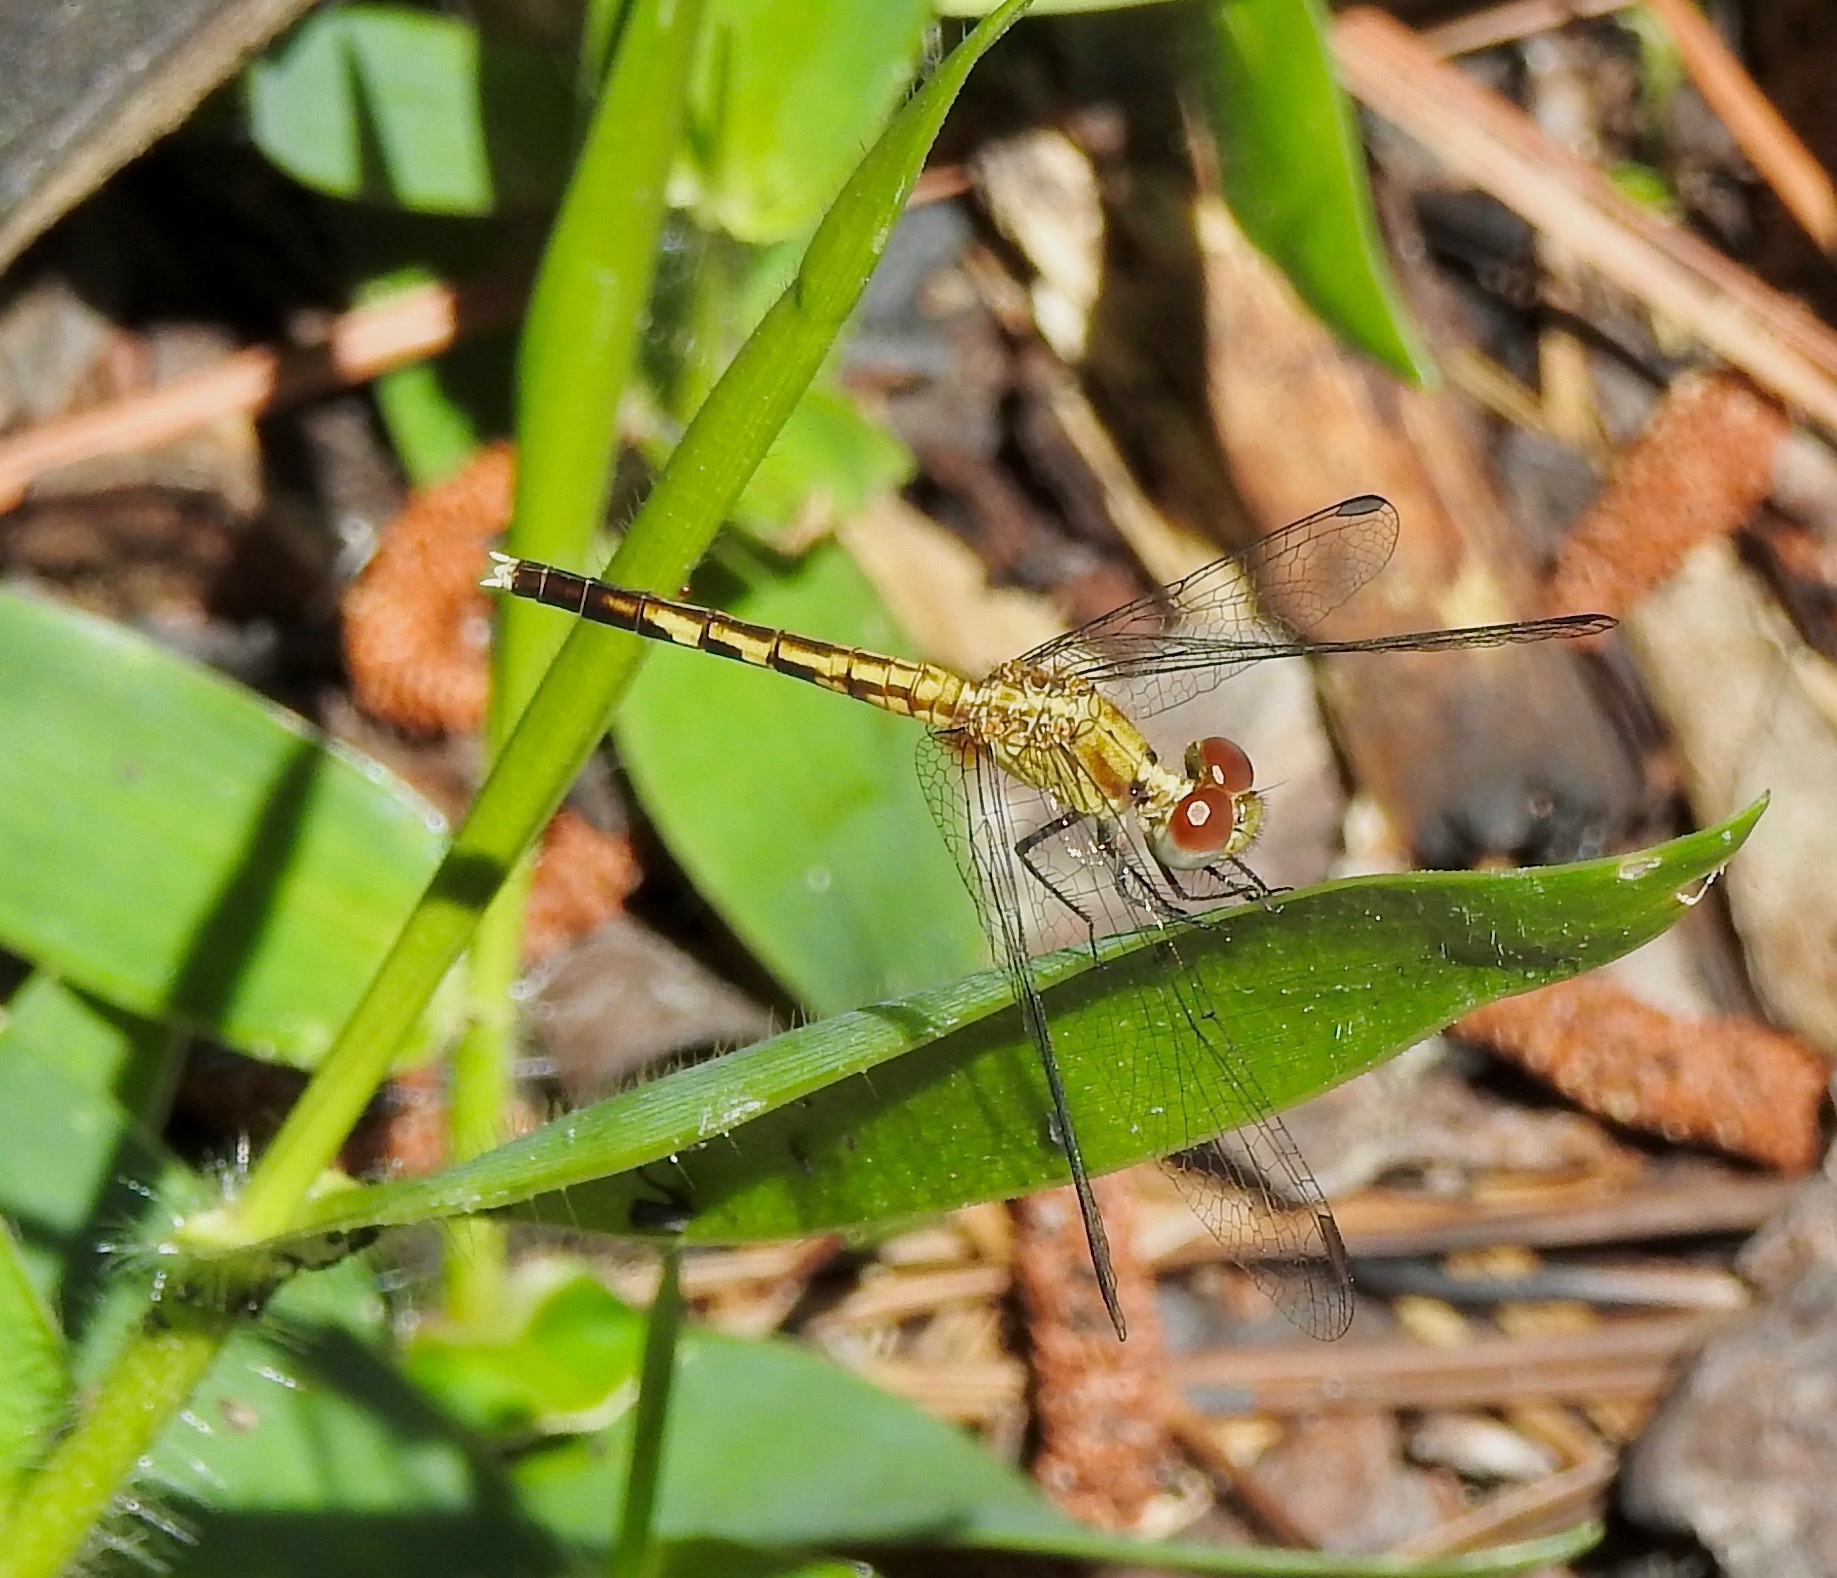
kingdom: Animalia
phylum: Arthropoda
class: Insecta
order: Odonata
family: Libellulidae
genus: Erythrodiplax
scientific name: Erythrodiplax minuscula
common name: Little blue dragonlet
